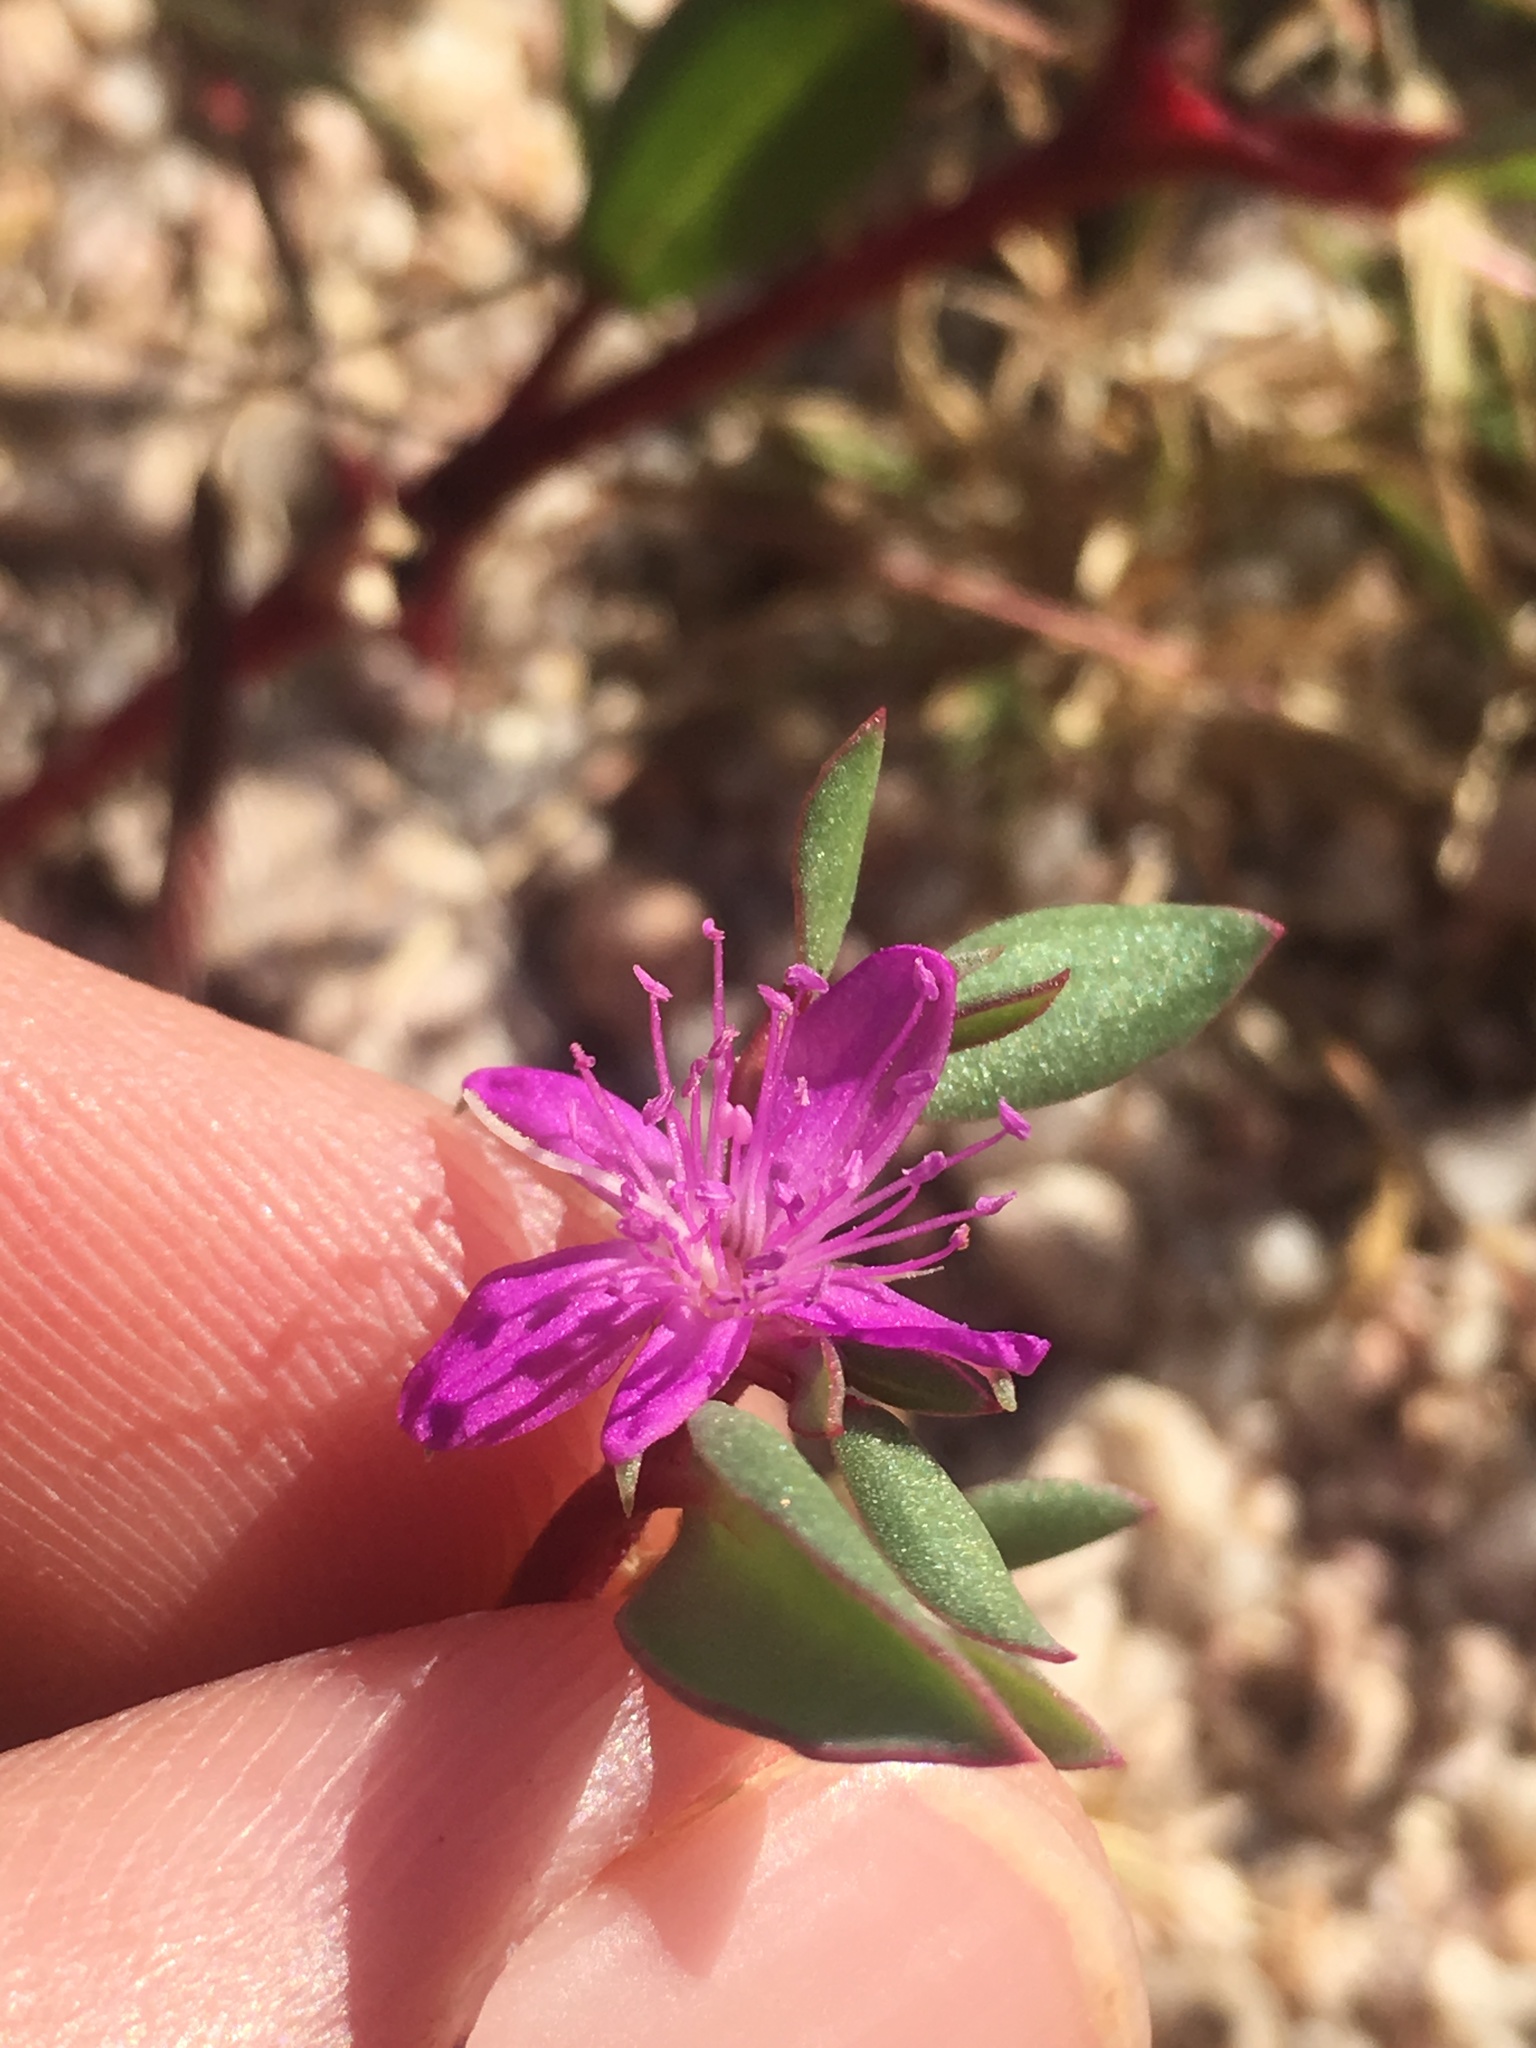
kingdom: Plantae
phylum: Tracheophyta
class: Magnoliopsida
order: Caryophyllales
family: Aizoaceae
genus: Trianthema
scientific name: Trianthema portulacastrum
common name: Desert horsepurslane
